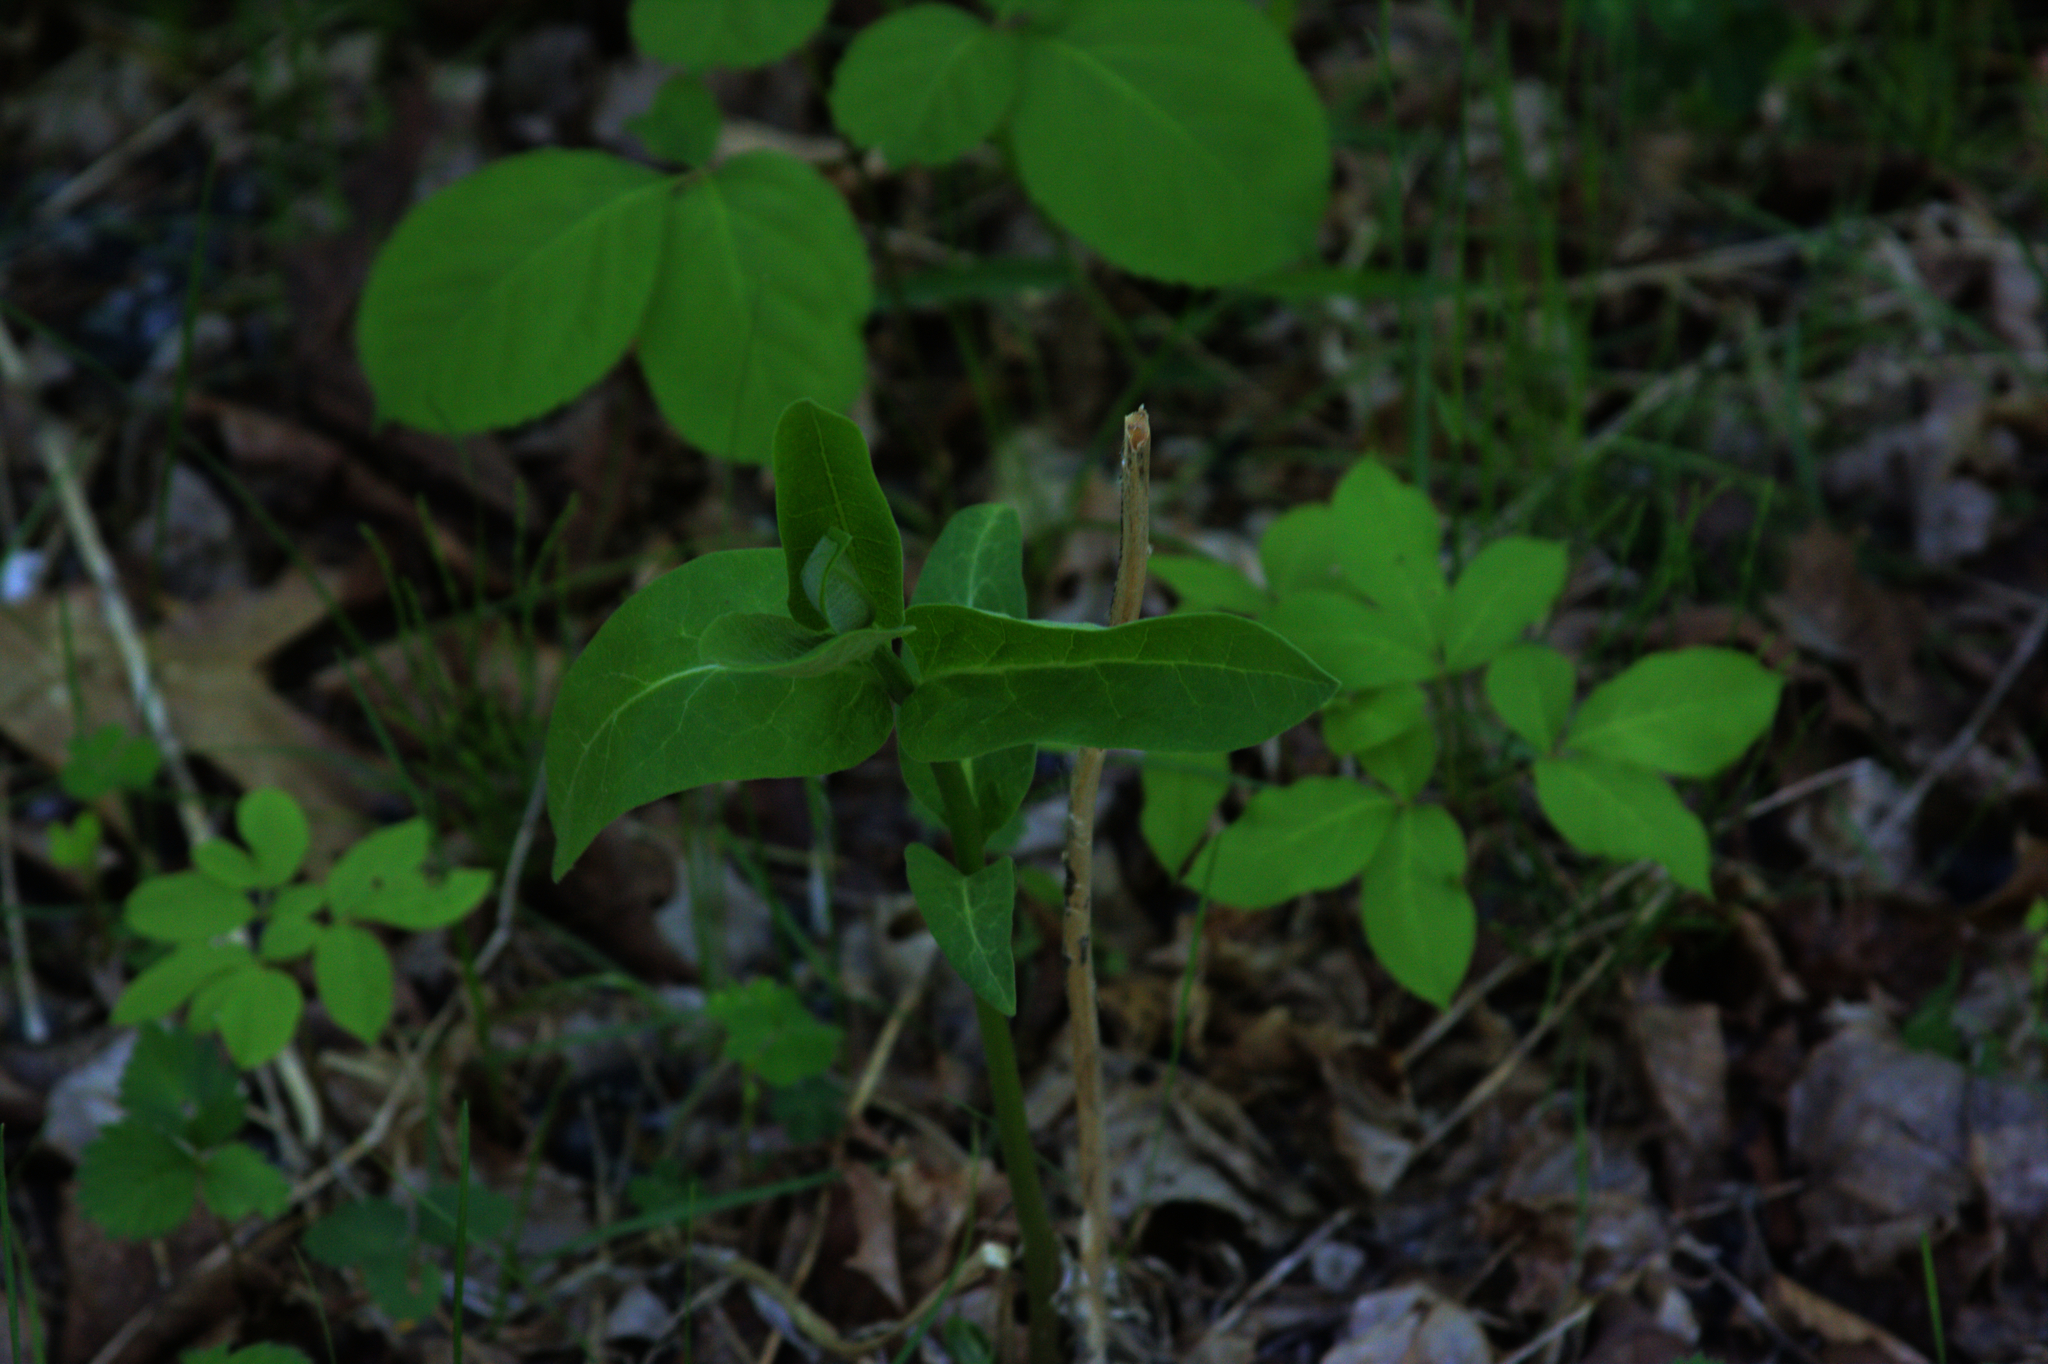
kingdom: Plantae
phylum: Tracheophyta
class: Magnoliopsida
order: Gentianales
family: Apocynaceae
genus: Asclepias
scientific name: Asclepias syriaca
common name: Common milkweed
